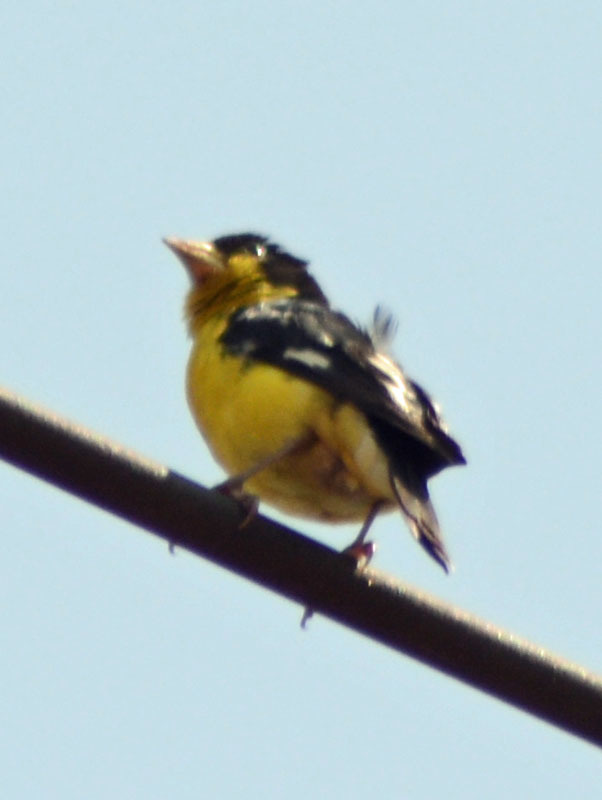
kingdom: Animalia
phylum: Chordata
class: Aves
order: Passeriformes
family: Fringillidae
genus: Spinus
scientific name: Spinus psaltria
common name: Lesser goldfinch
